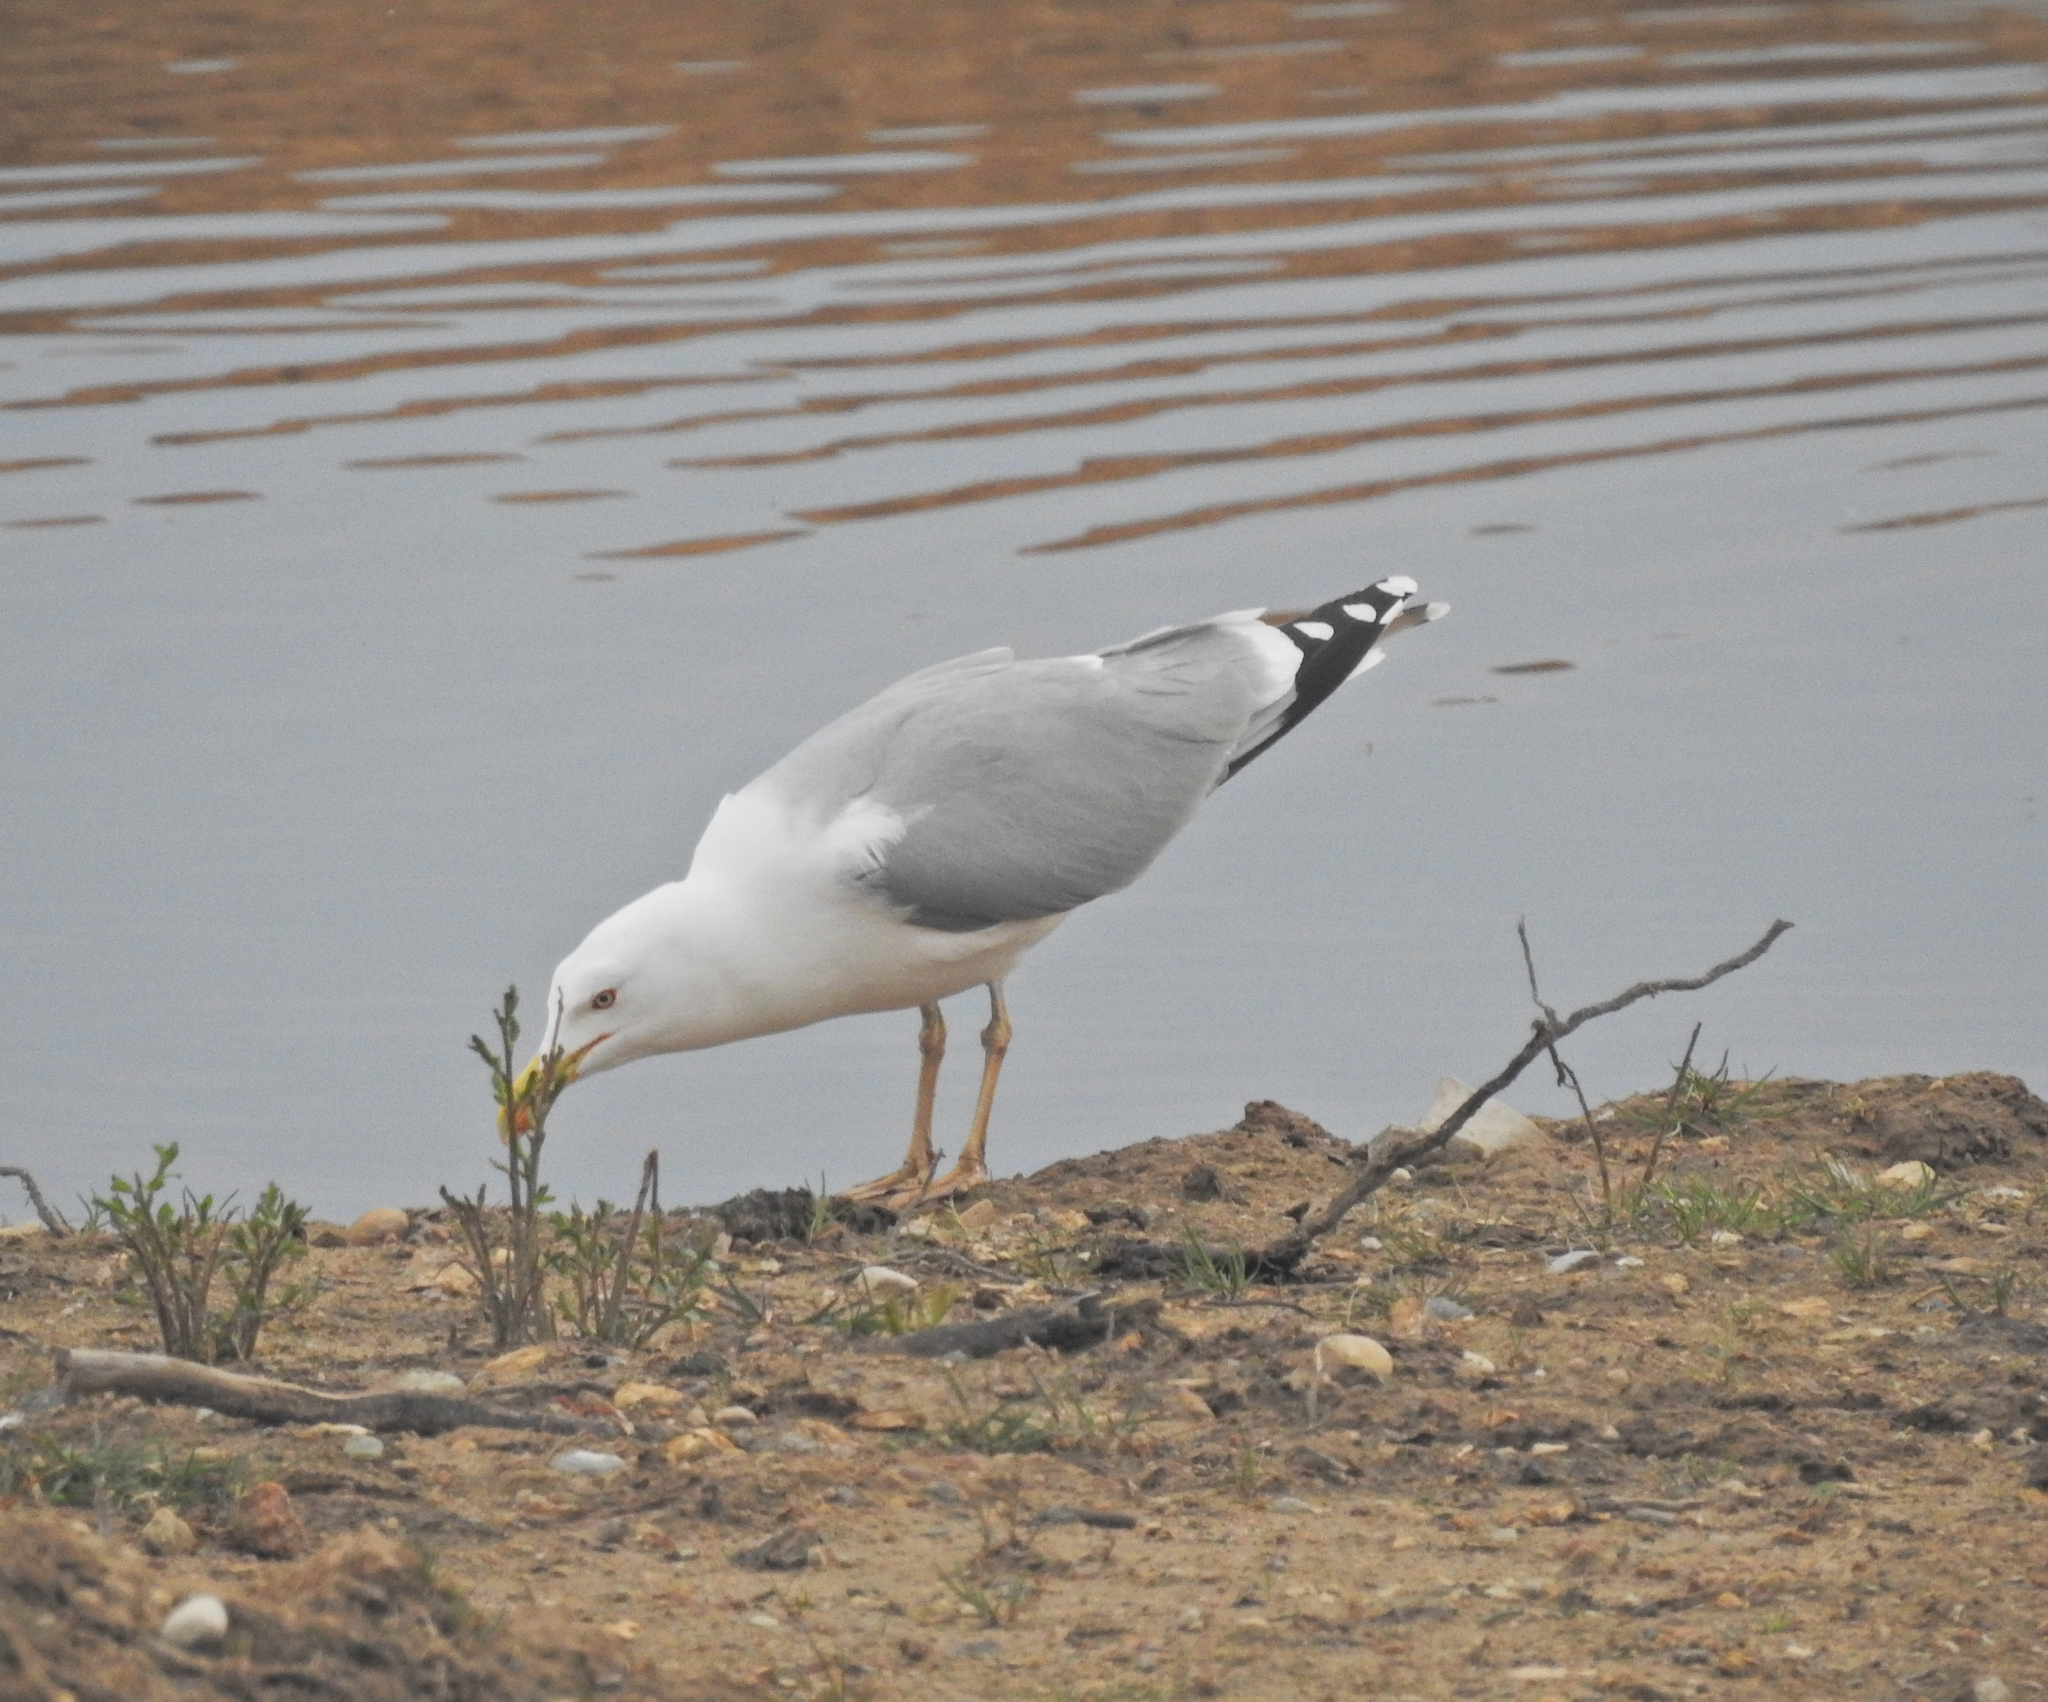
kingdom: Animalia
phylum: Chordata
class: Aves
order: Charadriiformes
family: Laridae
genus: Larus
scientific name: Larus argentatus
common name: Herring gull
